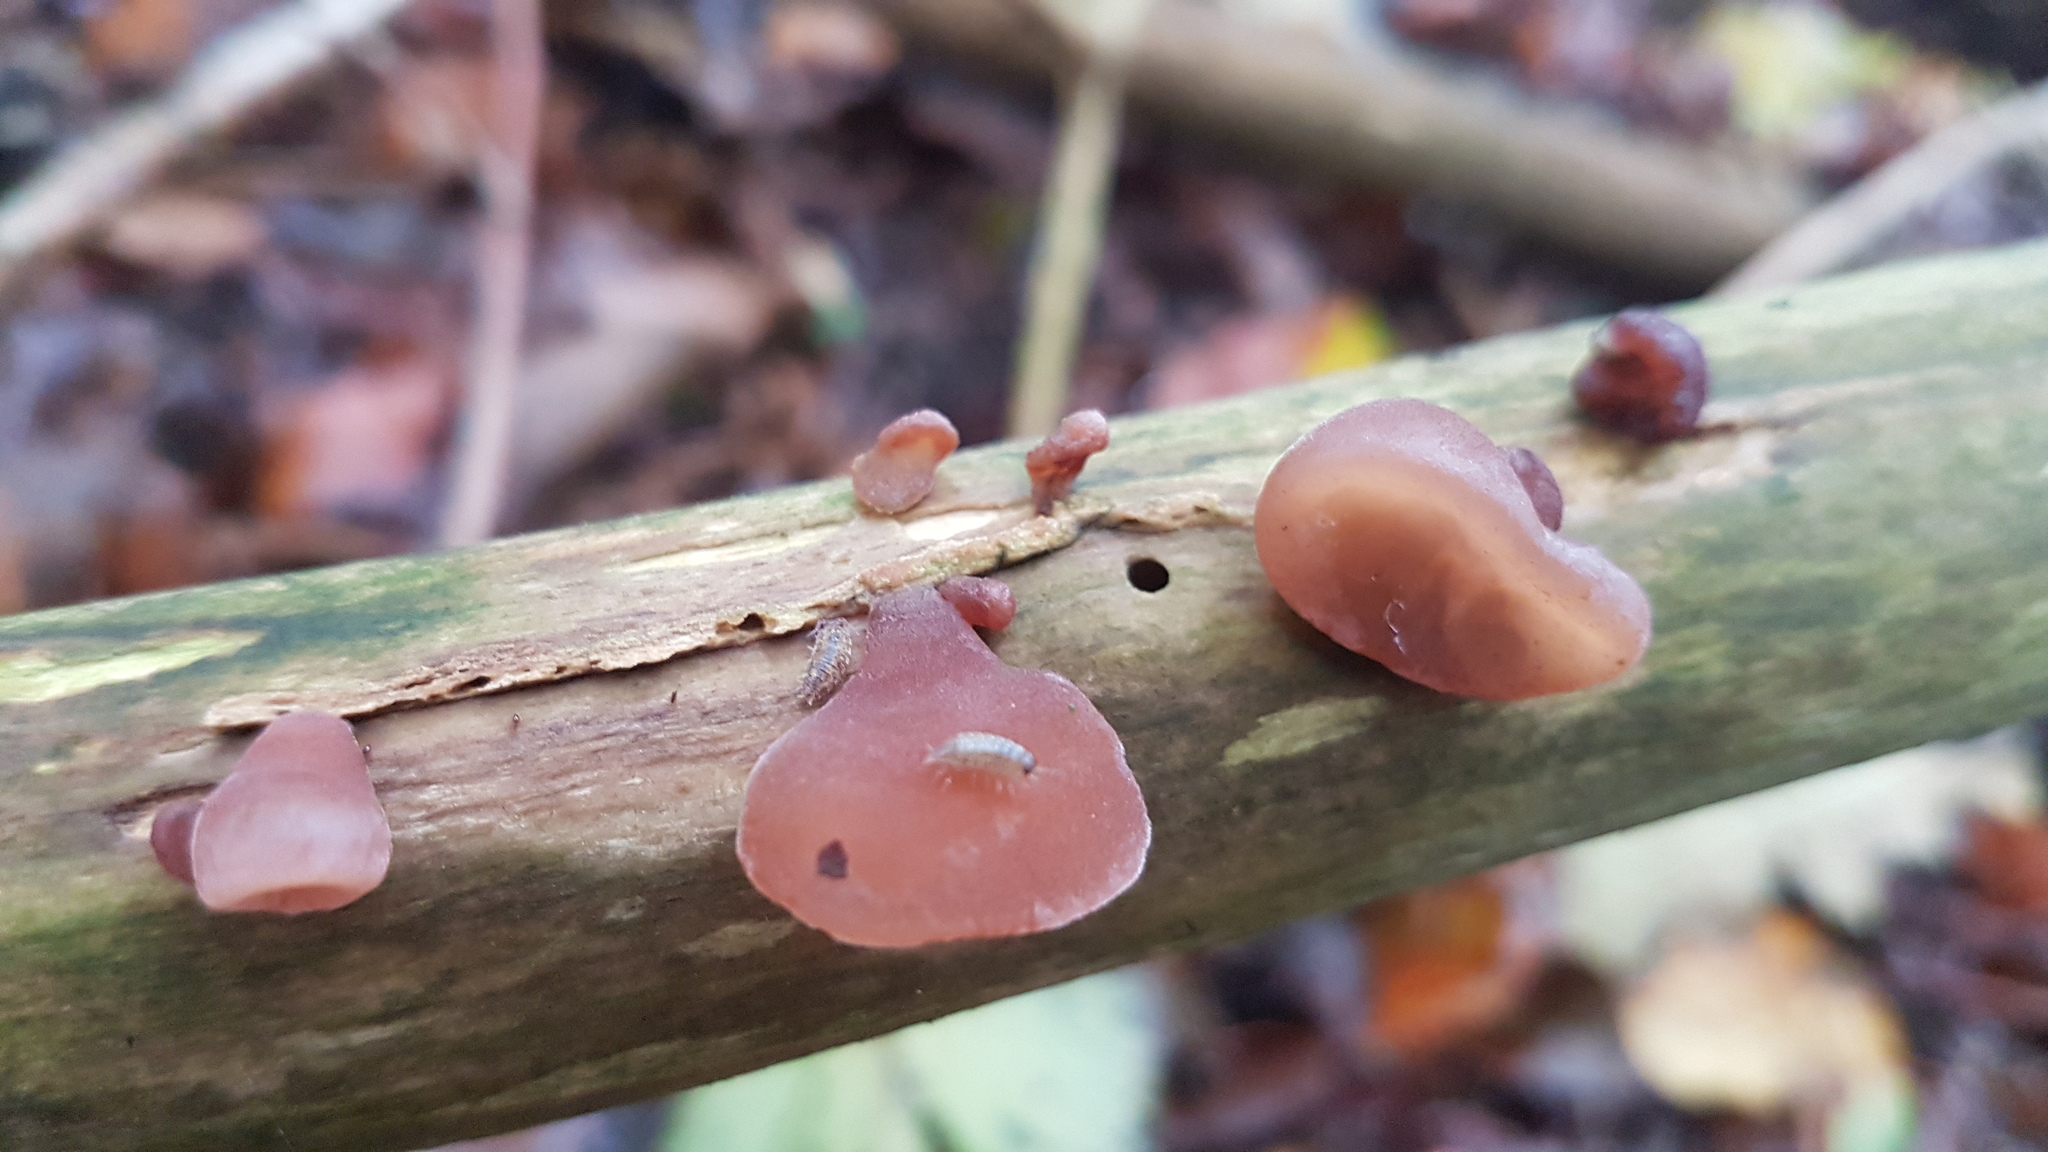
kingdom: Fungi
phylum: Basidiomycota
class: Agaricomycetes
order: Auriculariales
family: Auriculariaceae
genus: Auricularia
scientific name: Auricularia auricula-judae
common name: Jelly ear
